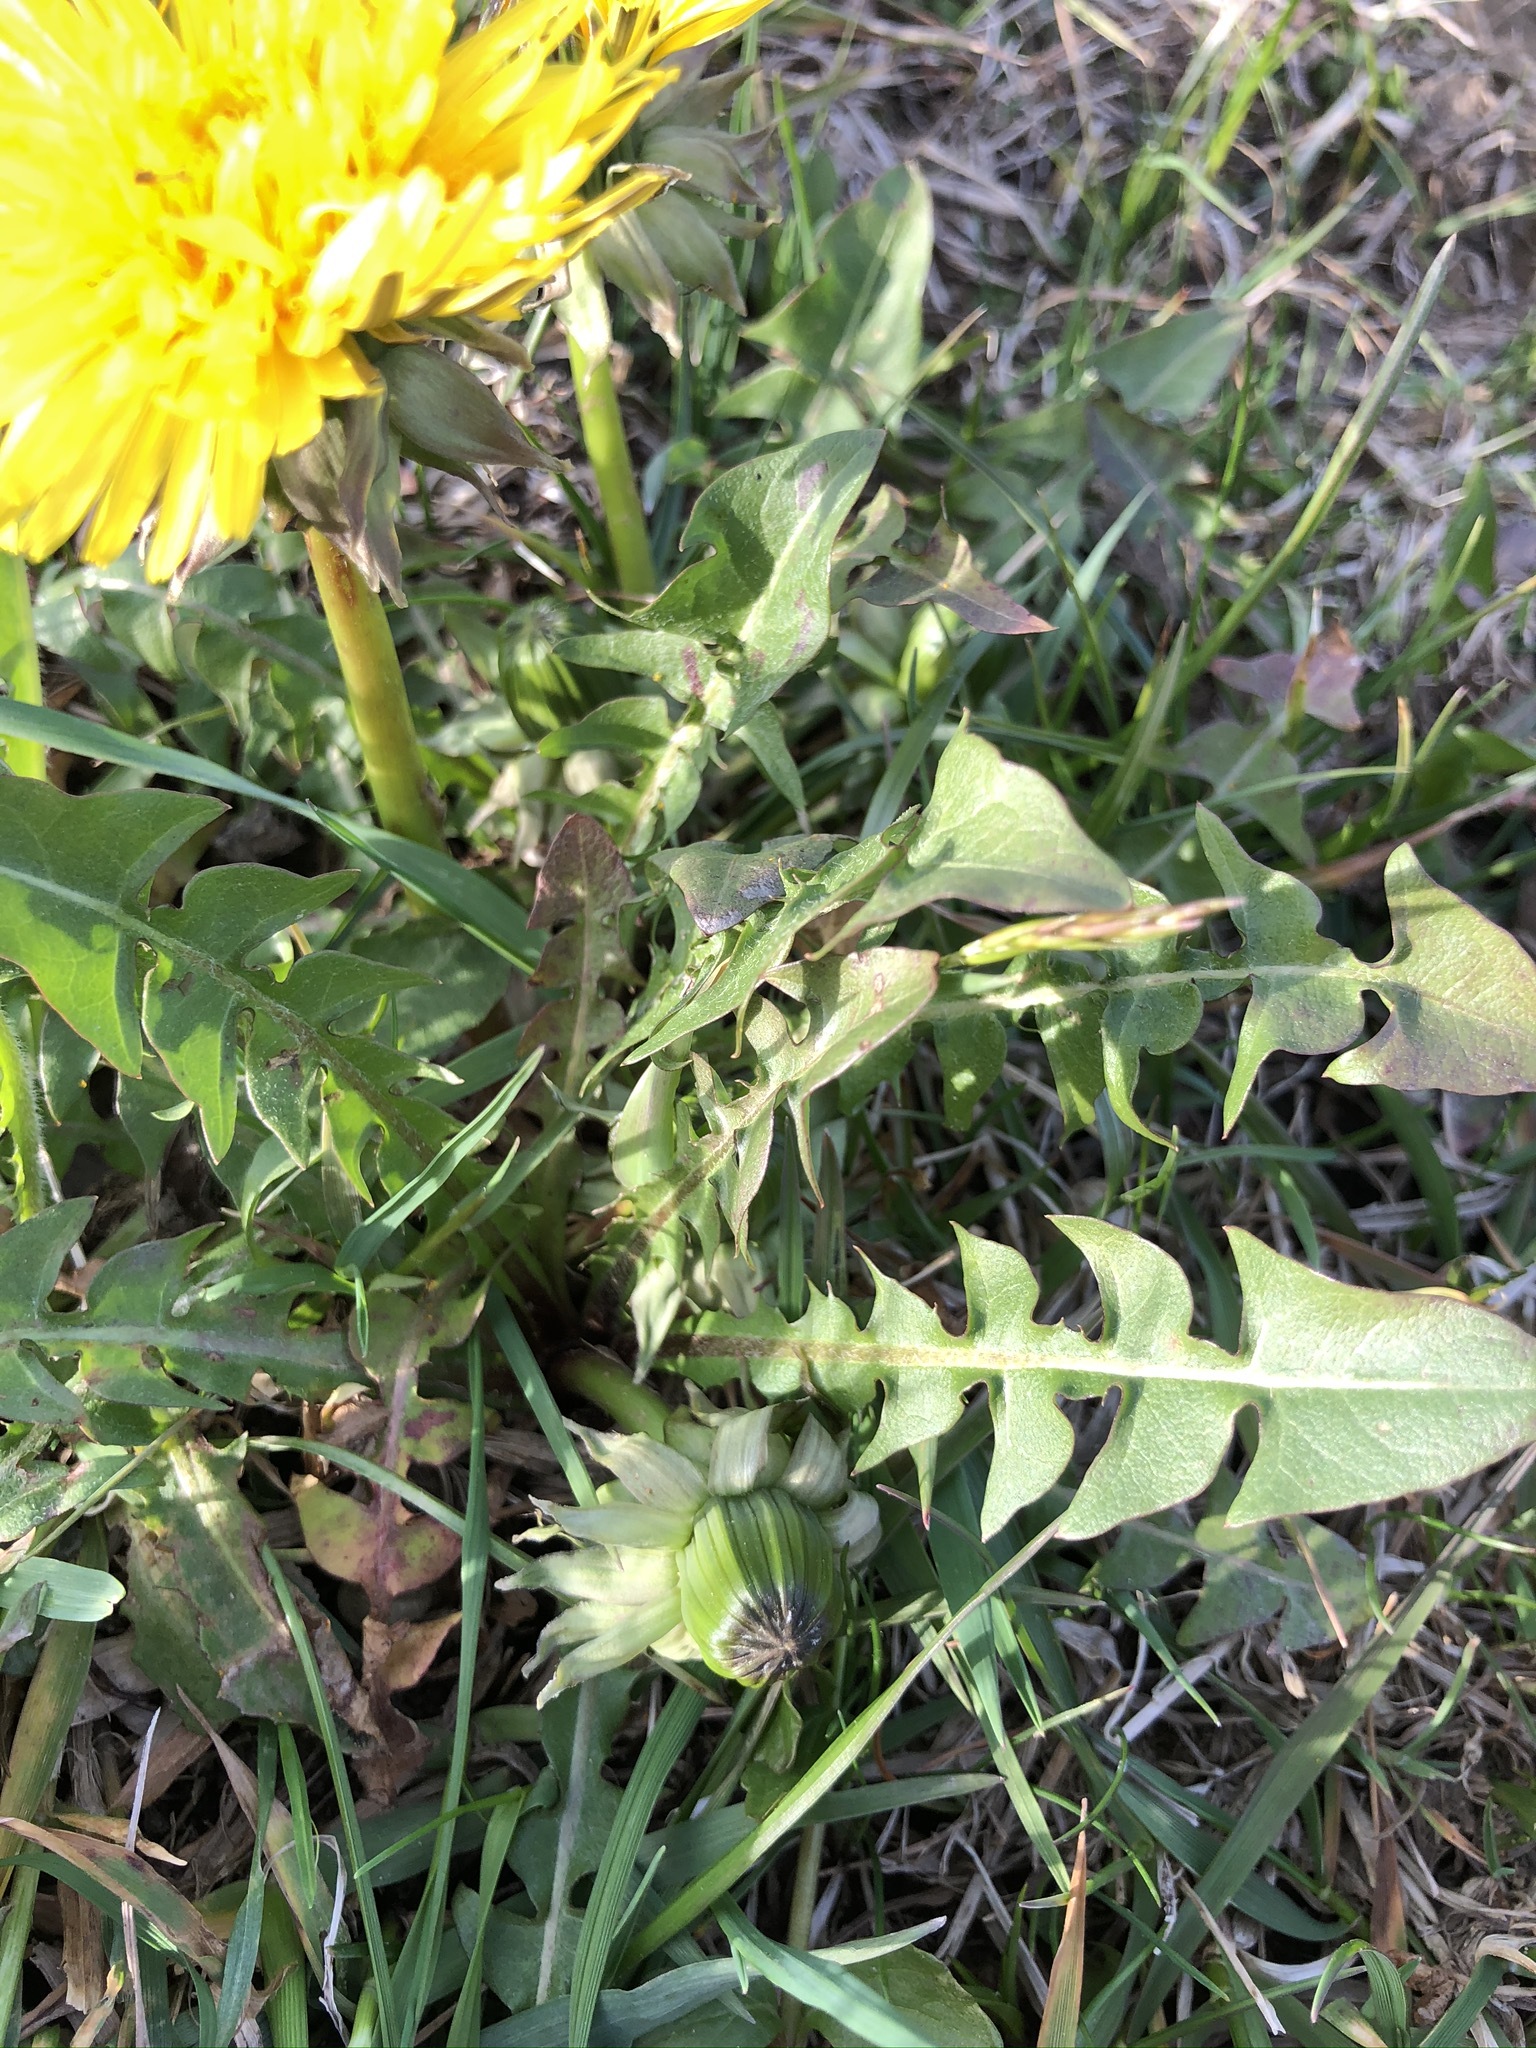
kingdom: Plantae
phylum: Tracheophyta
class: Magnoliopsida
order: Asterales
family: Asteraceae
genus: Taraxacum
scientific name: Taraxacum officinale
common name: Common dandelion
